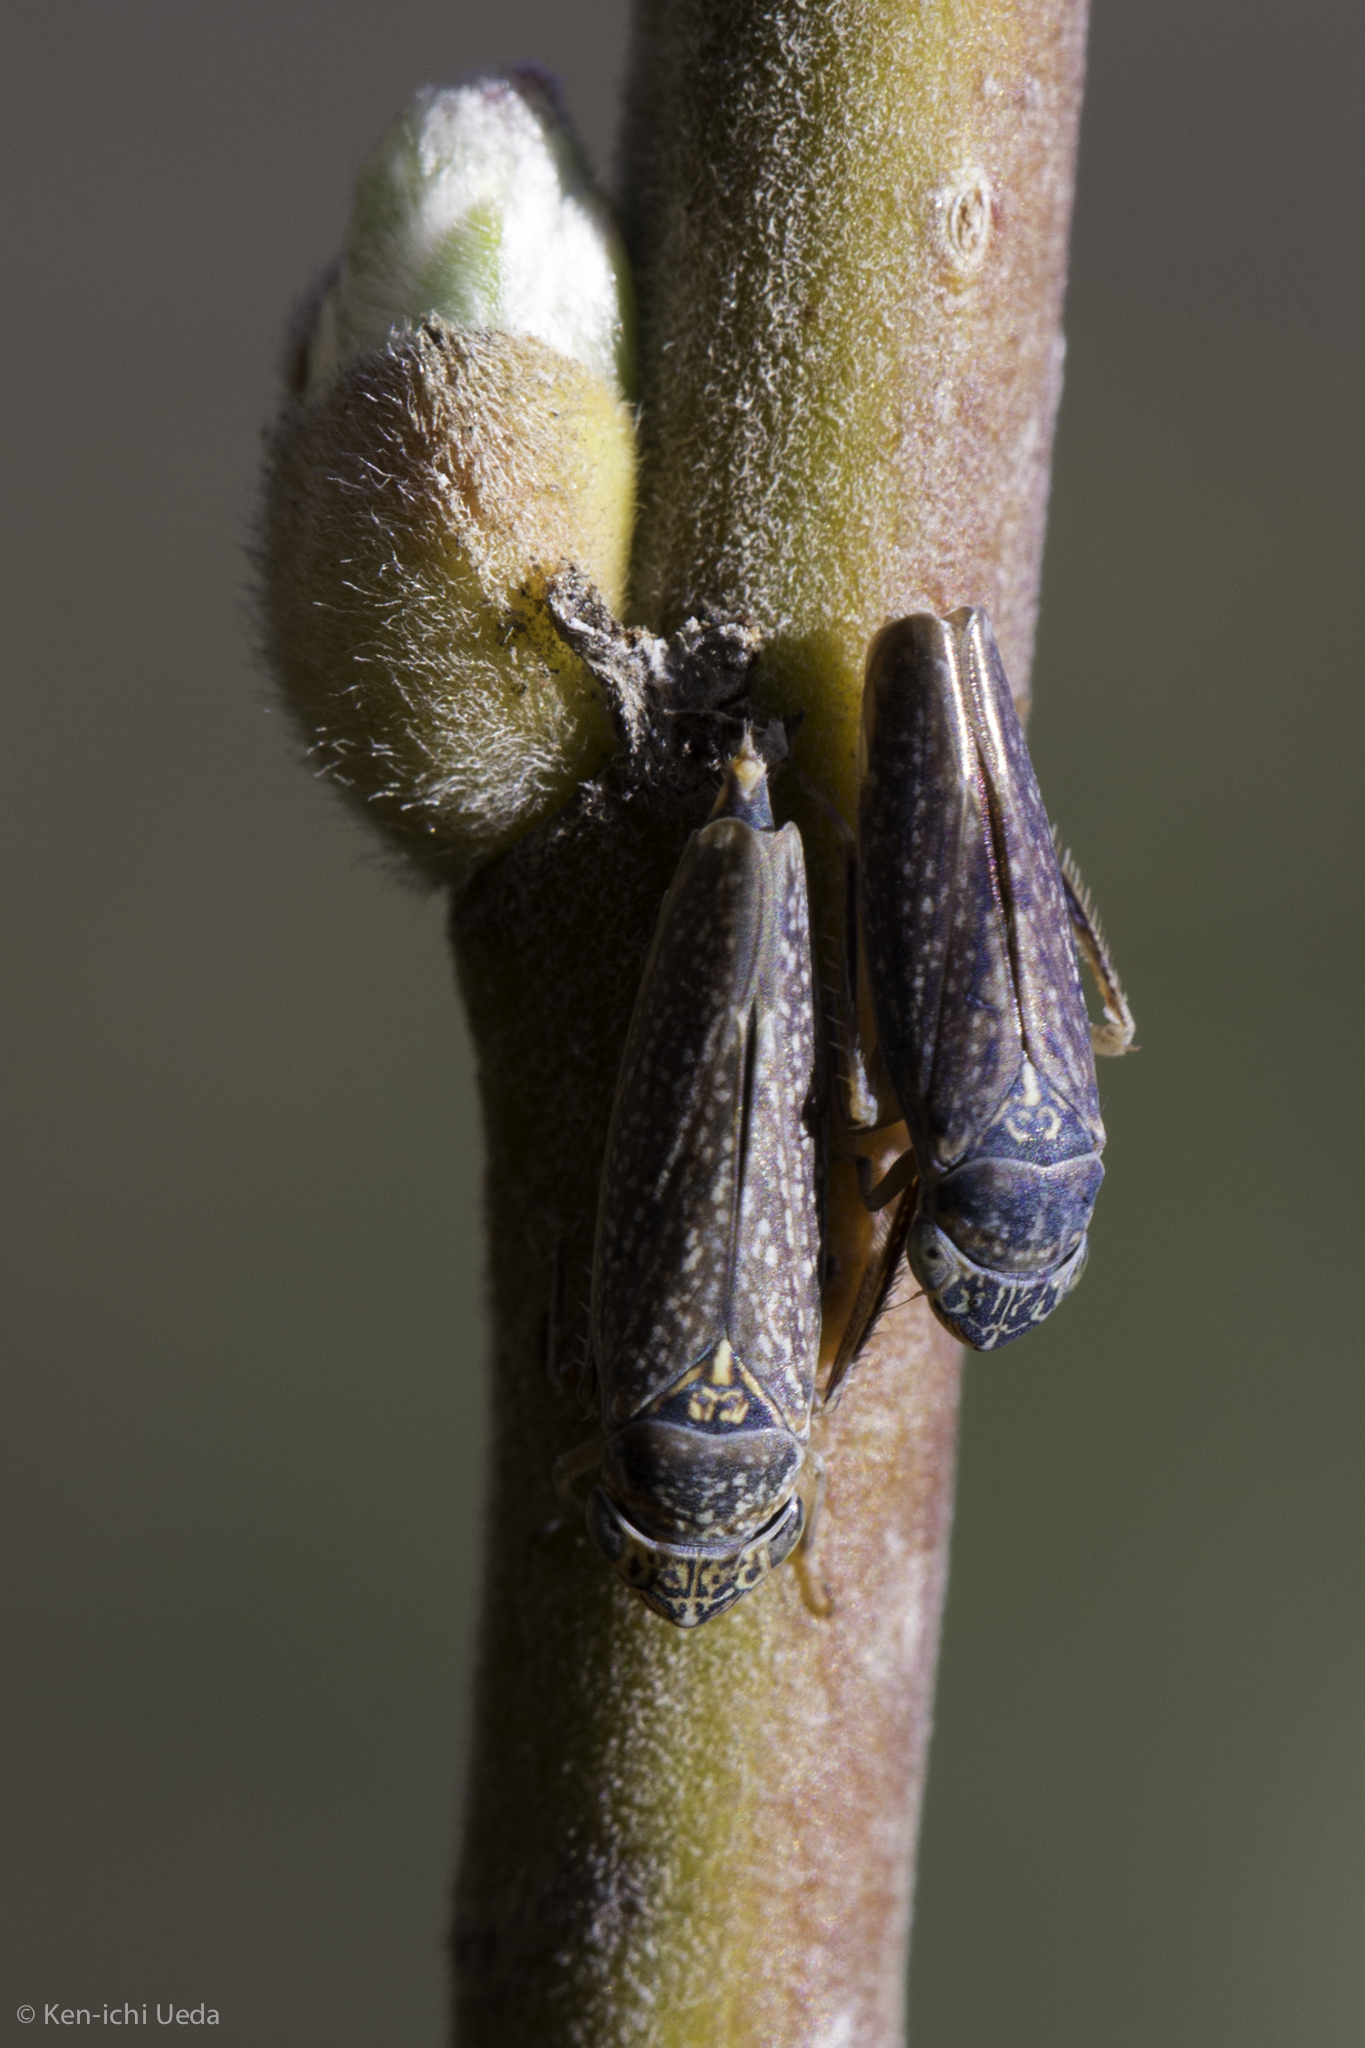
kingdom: Animalia
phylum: Arthropoda
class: Insecta
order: Hemiptera
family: Cicadellidae
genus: Graphocephala
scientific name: Graphocephala confluens
